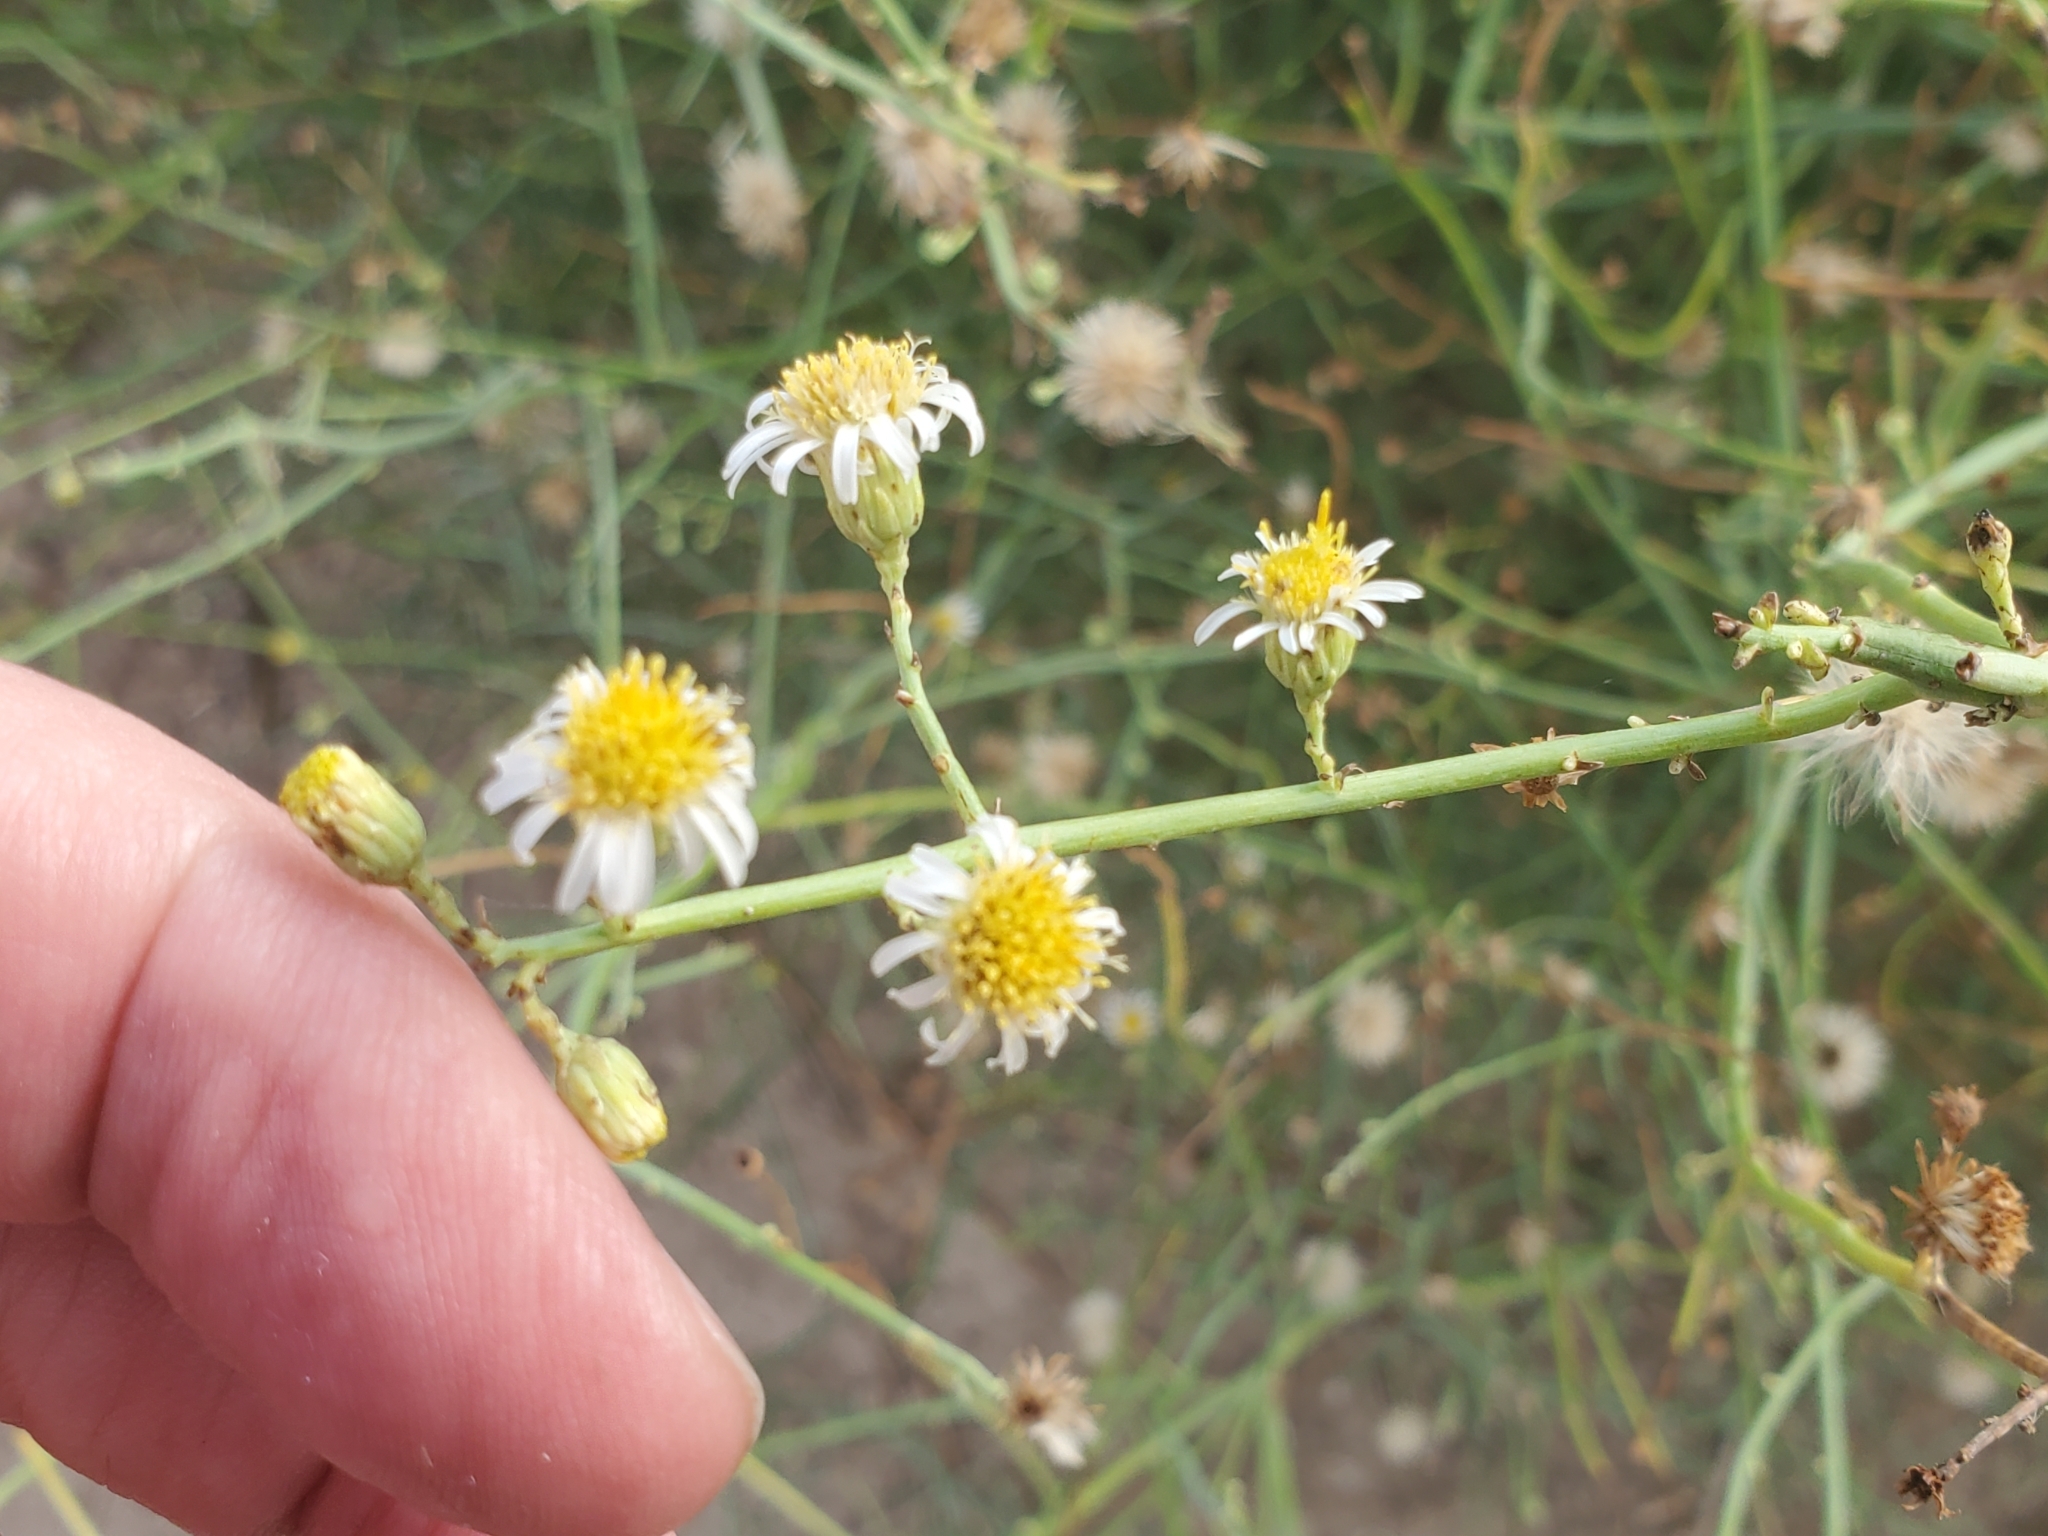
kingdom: Plantae
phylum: Tracheophyta
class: Magnoliopsida
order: Asterales
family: Asteraceae
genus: Chloracantha
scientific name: Chloracantha spinosa
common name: Mexican devilweed
